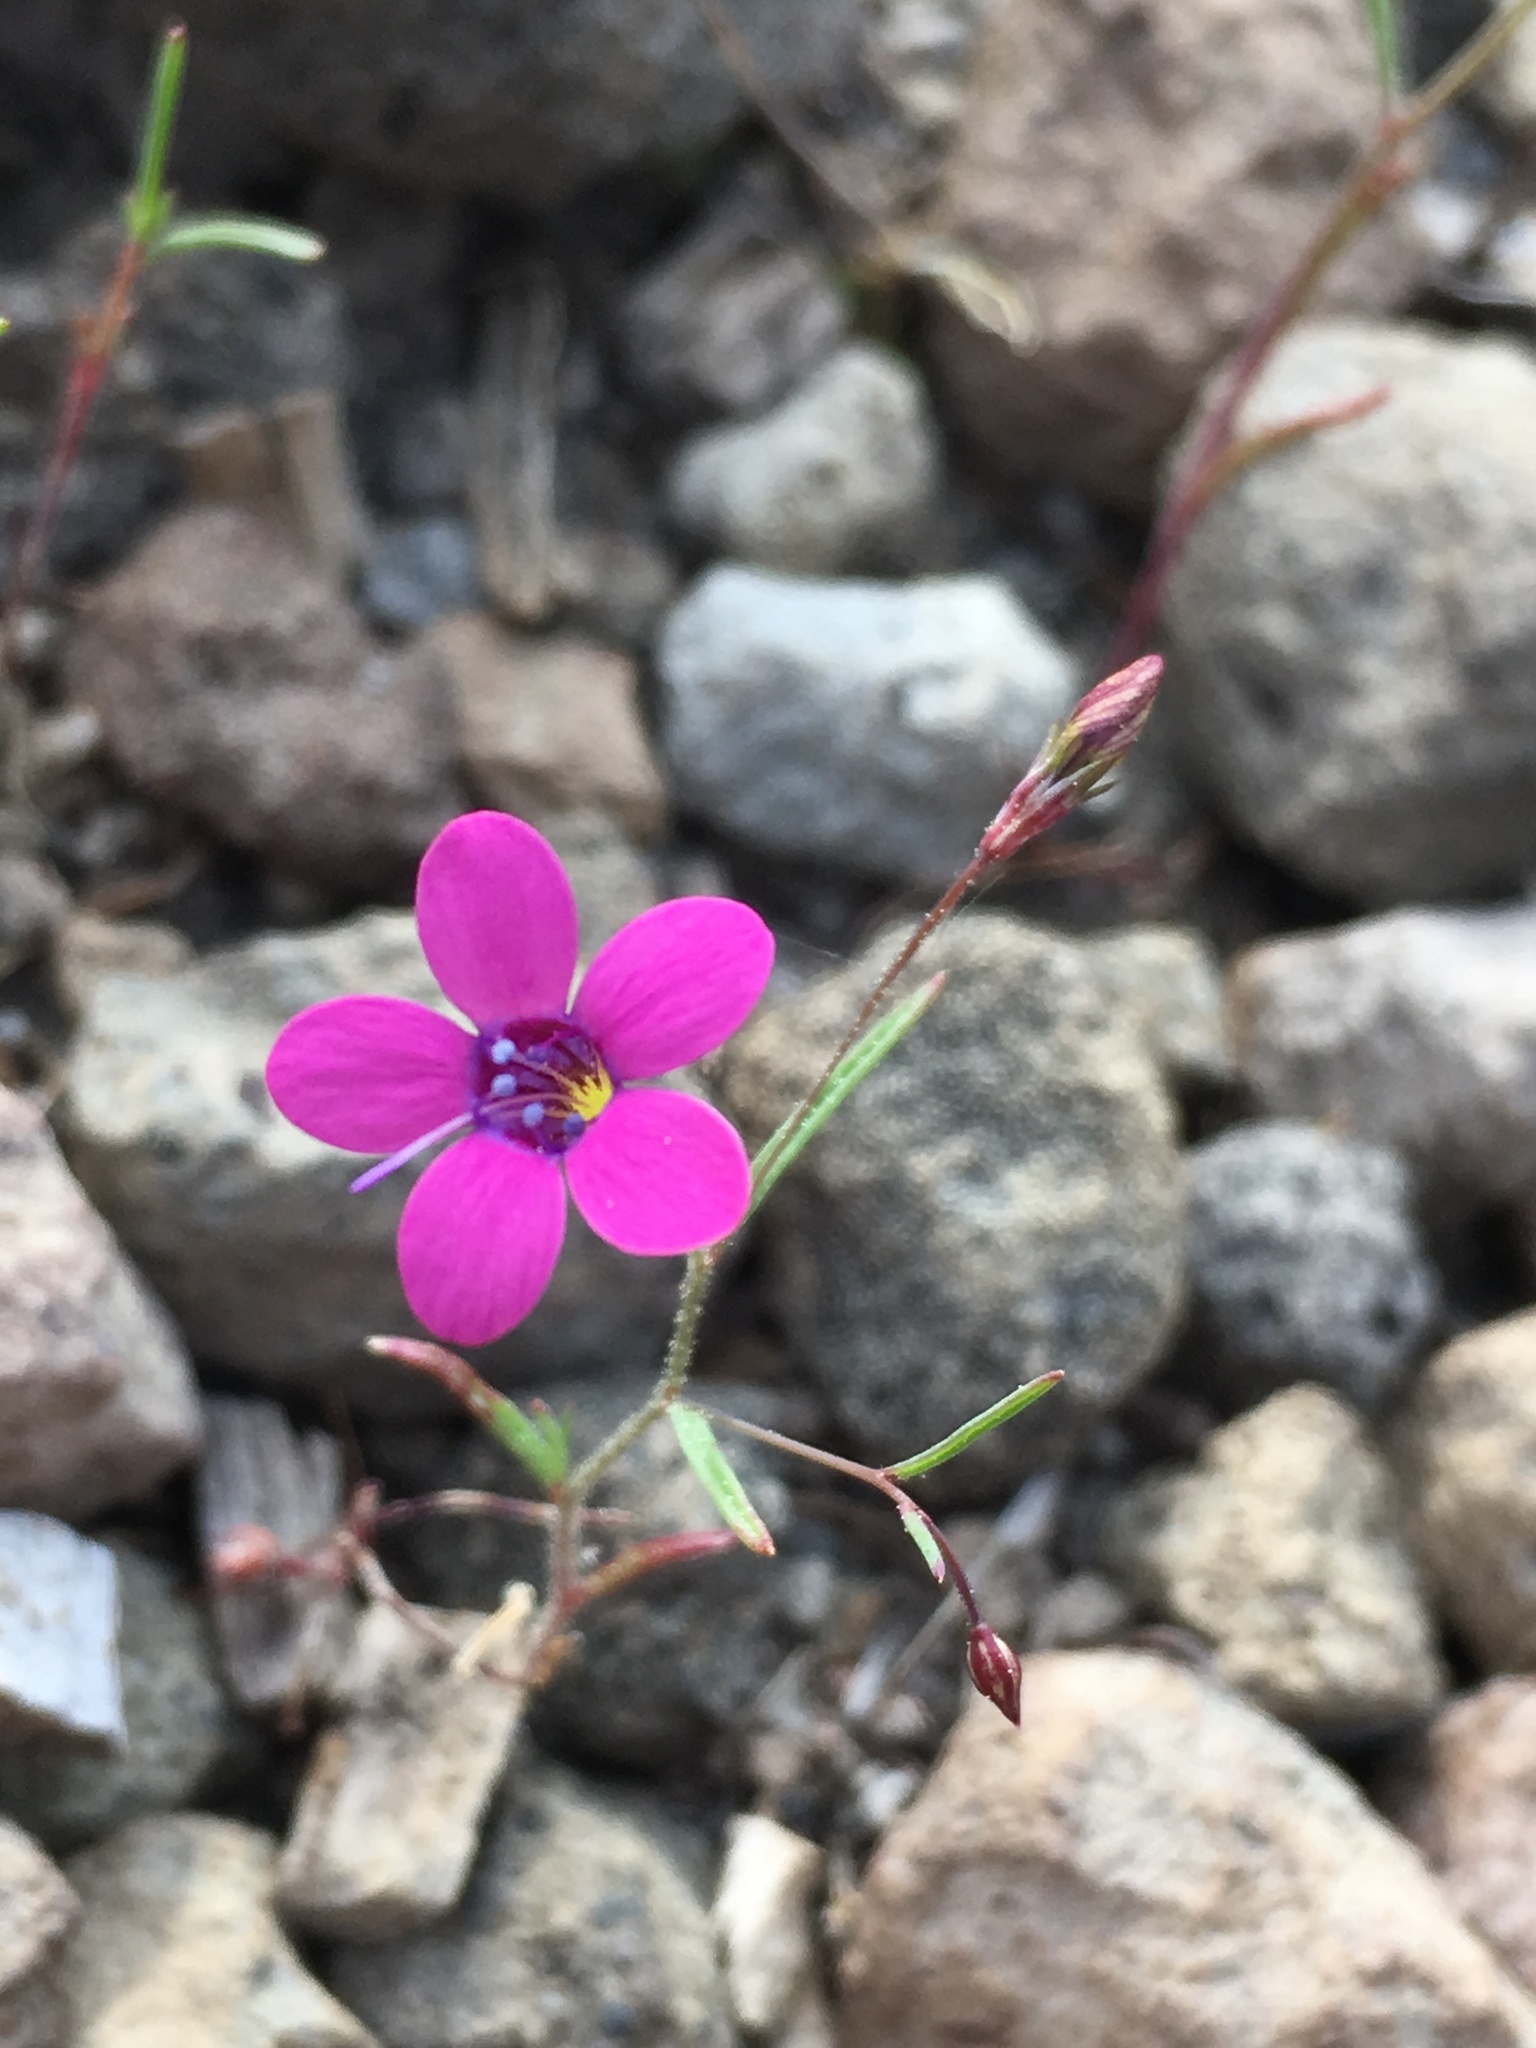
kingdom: Plantae
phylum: Tracheophyta
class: Magnoliopsida
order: Ericales
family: Polemoniaceae
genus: Navarretia
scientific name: Navarretia leptalea
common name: Bridges' pincushionplant
